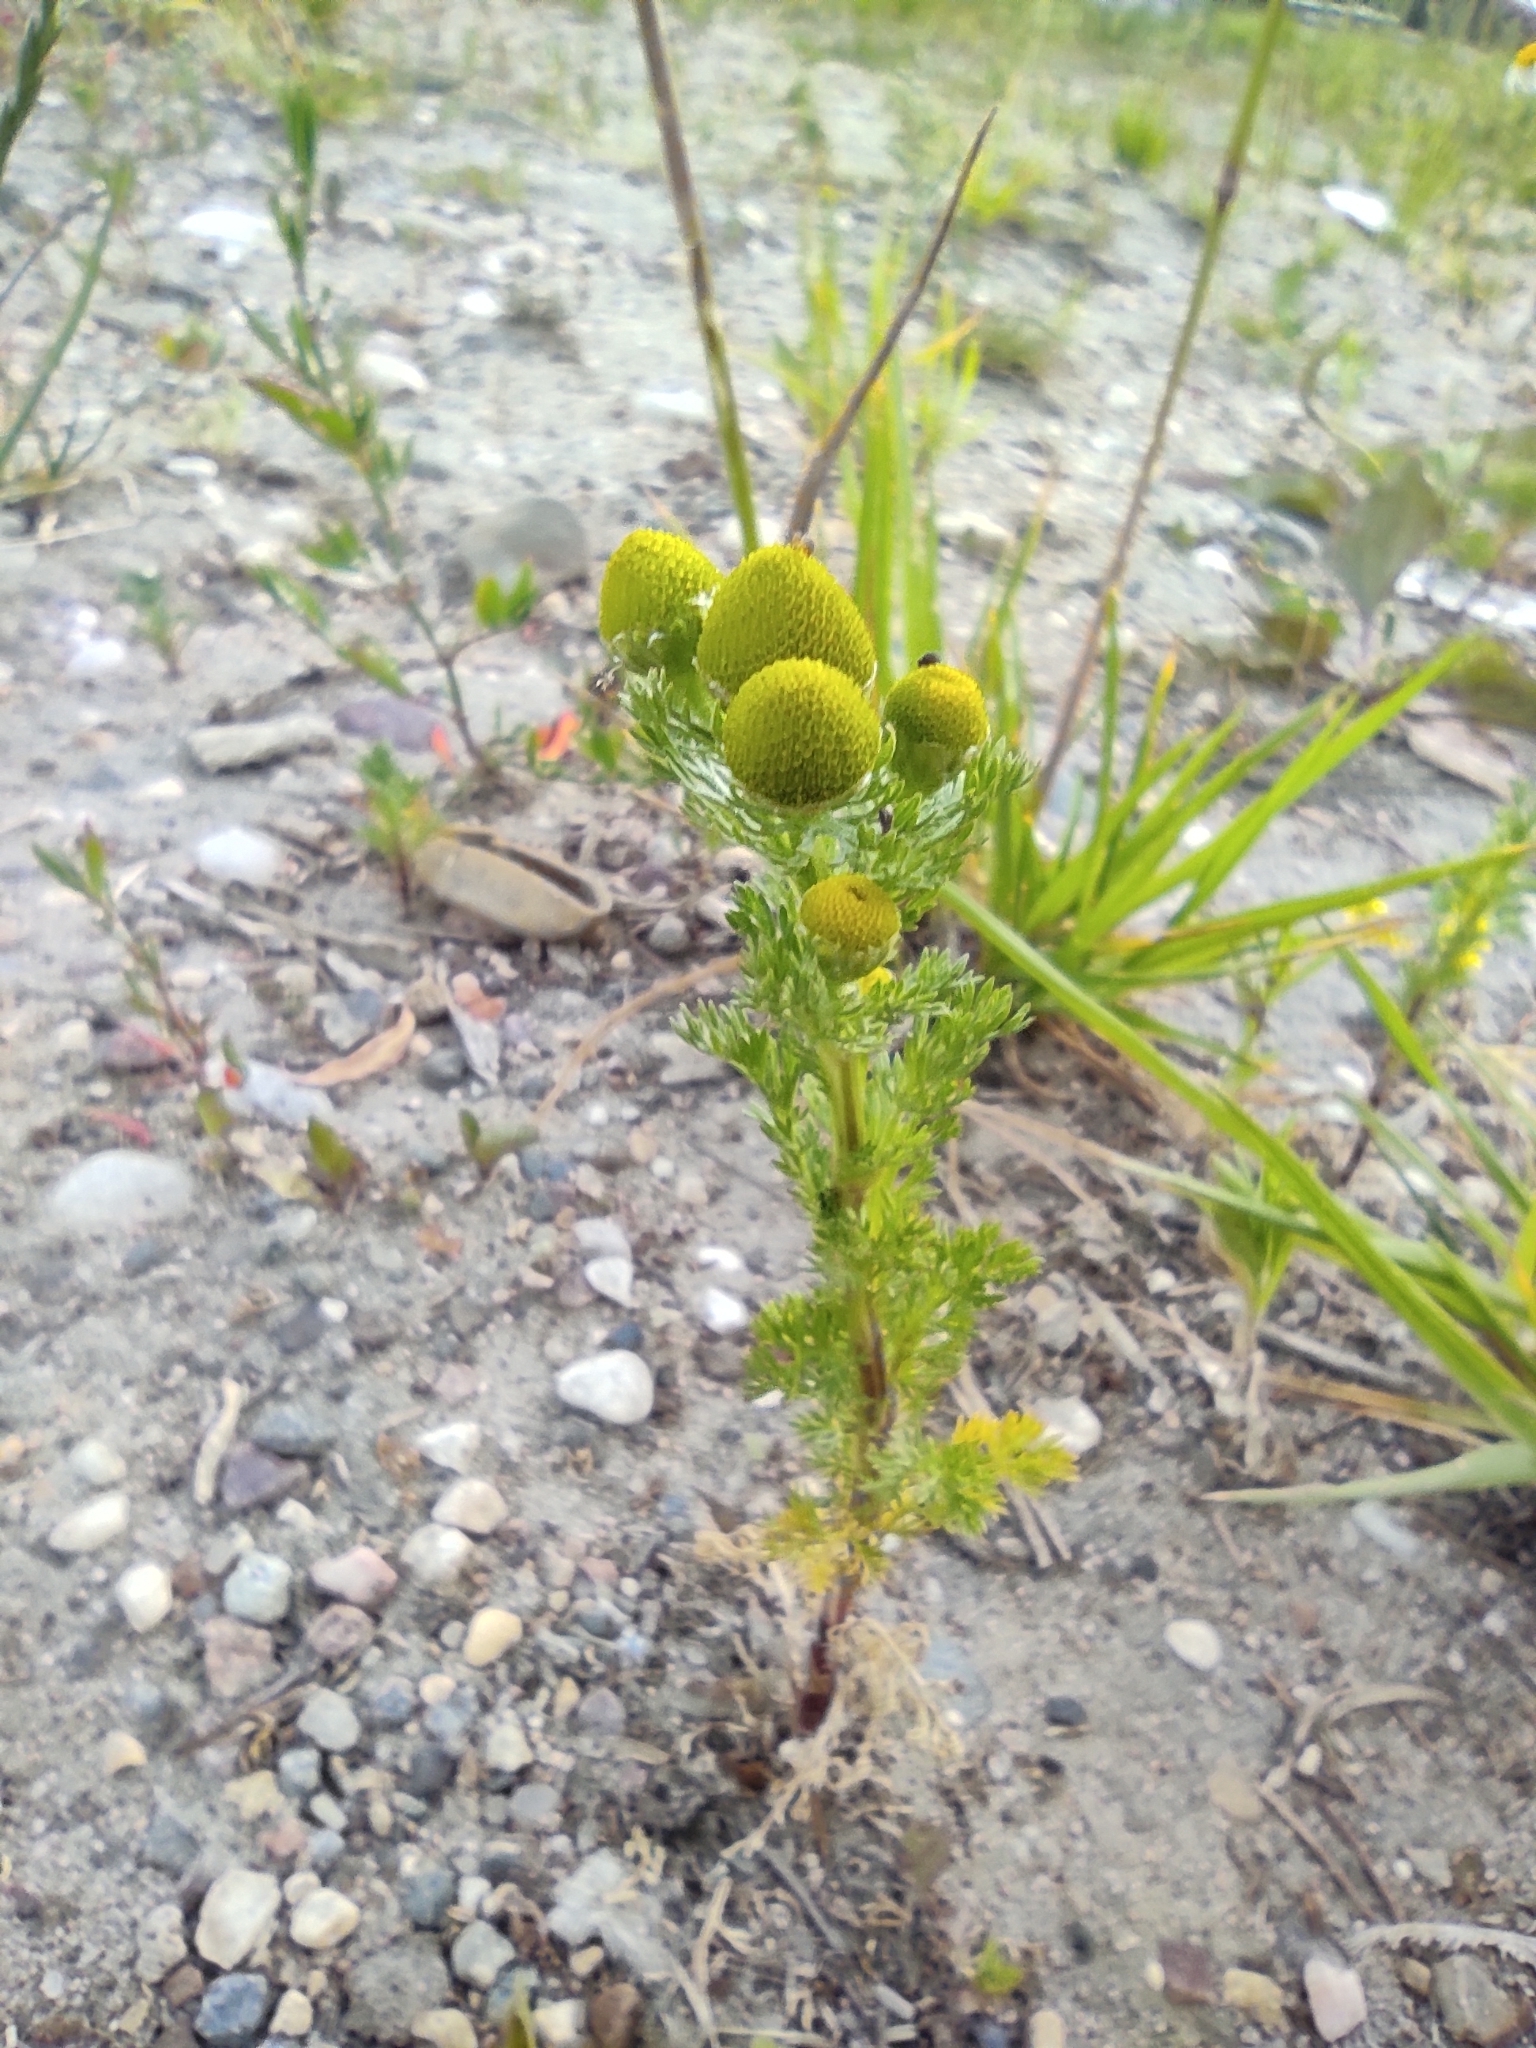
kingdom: Plantae
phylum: Tracheophyta
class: Magnoliopsida
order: Asterales
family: Asteraceae
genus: Matricaria
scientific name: Matricaria discoidea
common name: Disc mayweed
